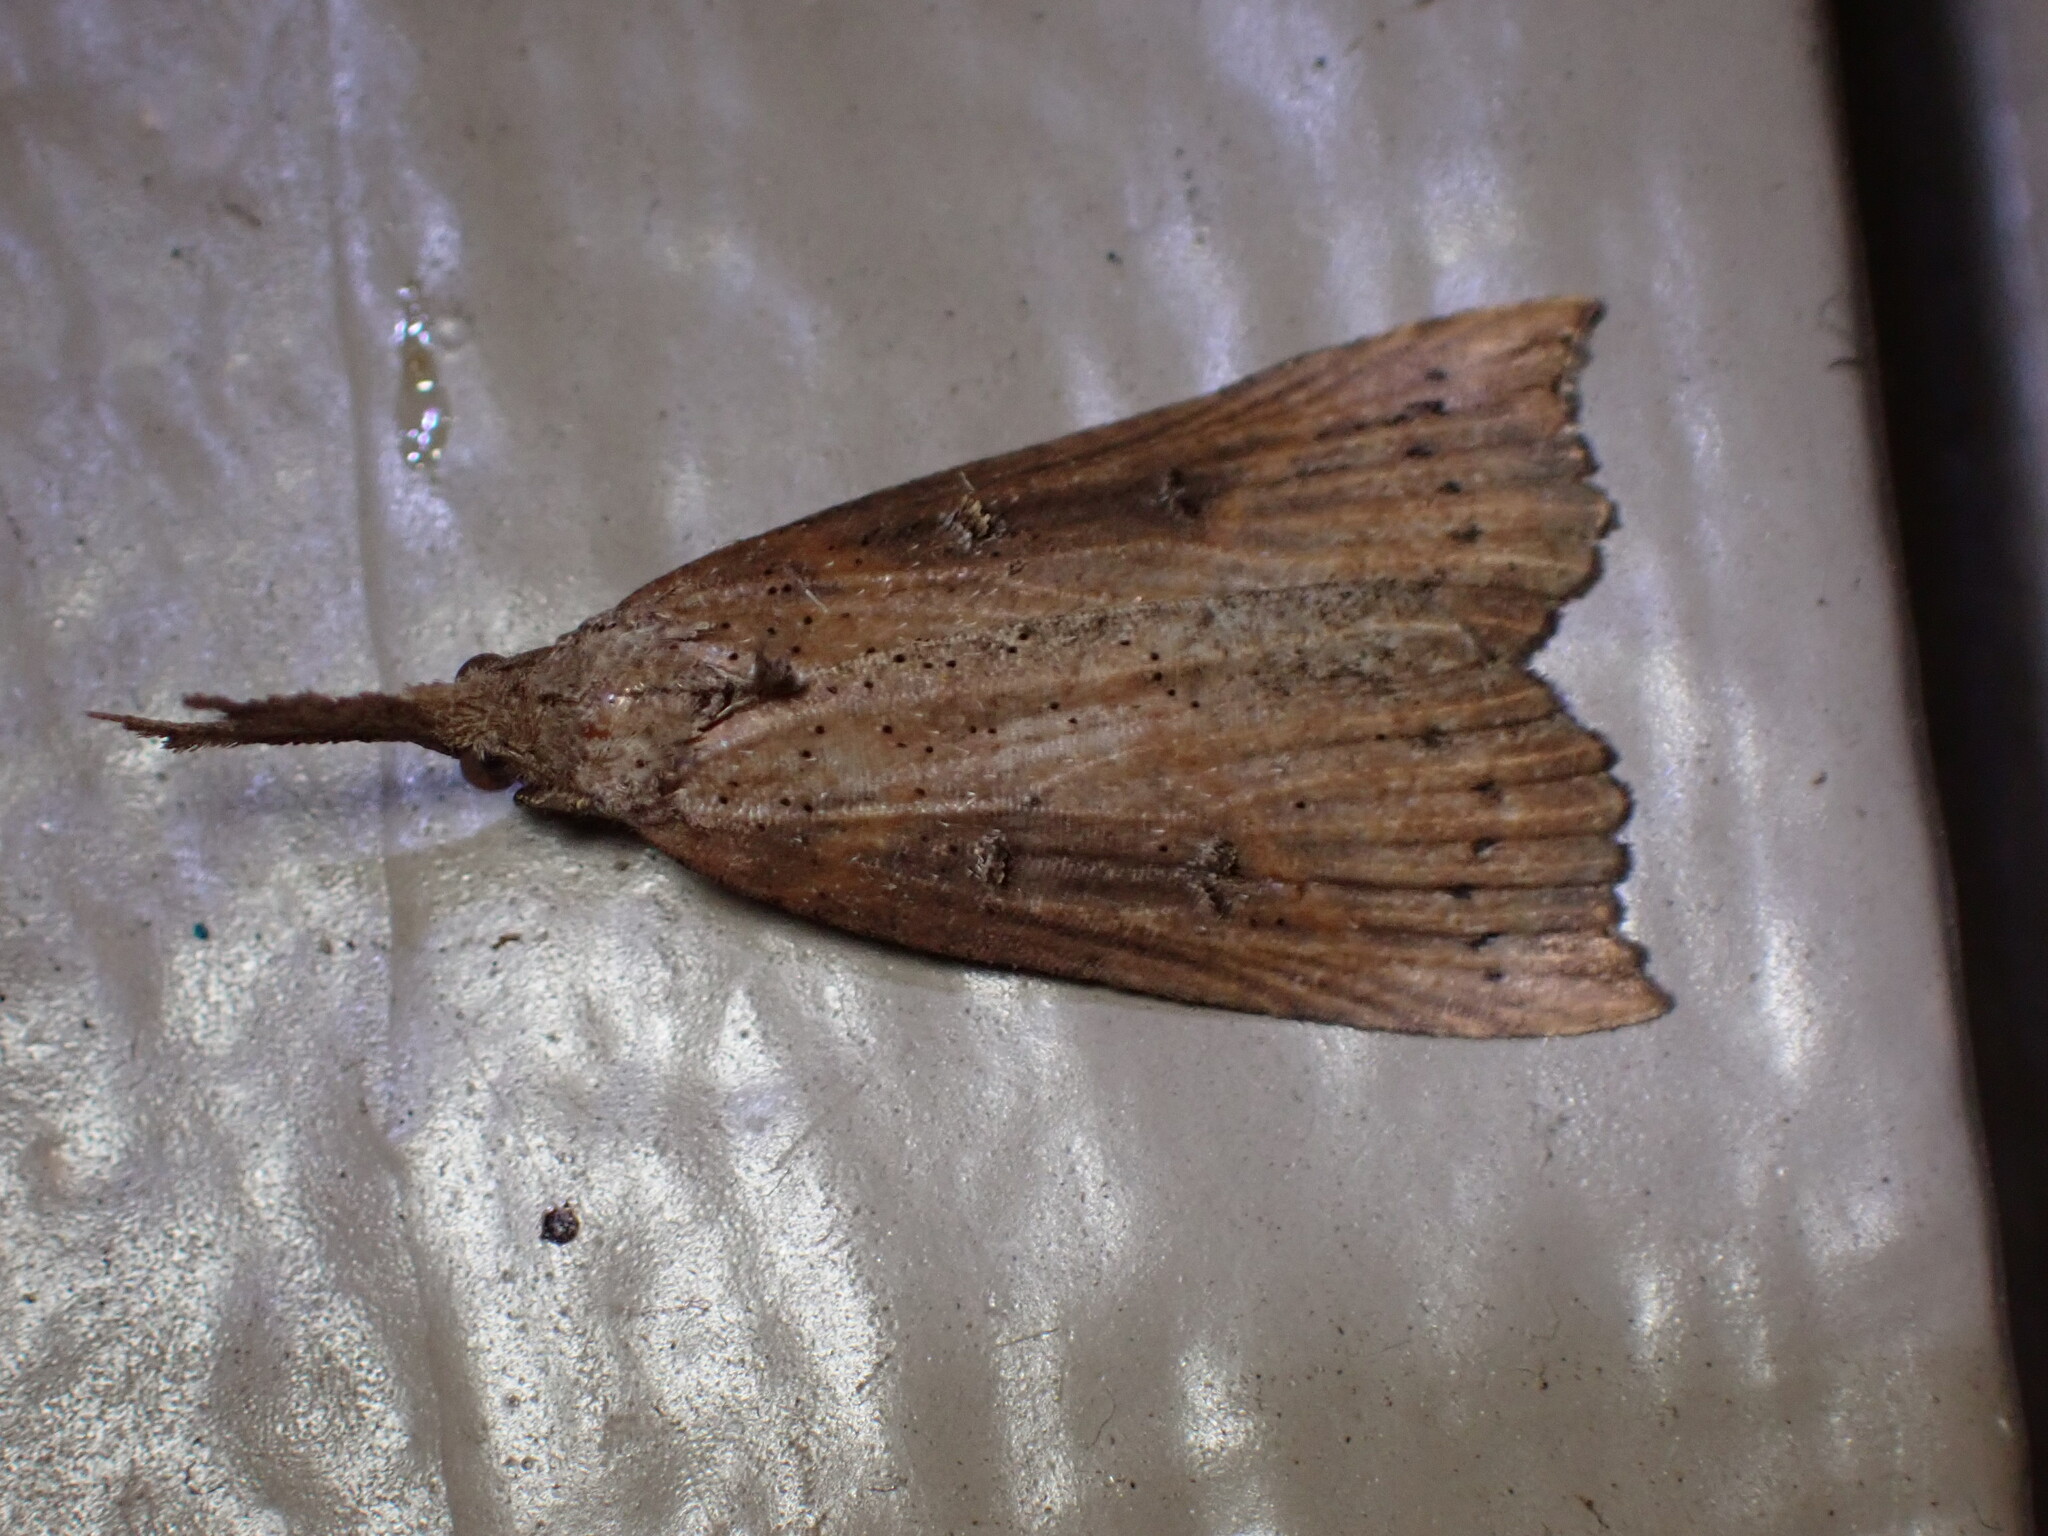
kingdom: Animalia
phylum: Arthropoda
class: Insecta
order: Lepidoptera
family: Erebidae
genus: Hypena
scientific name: Hypena californica
